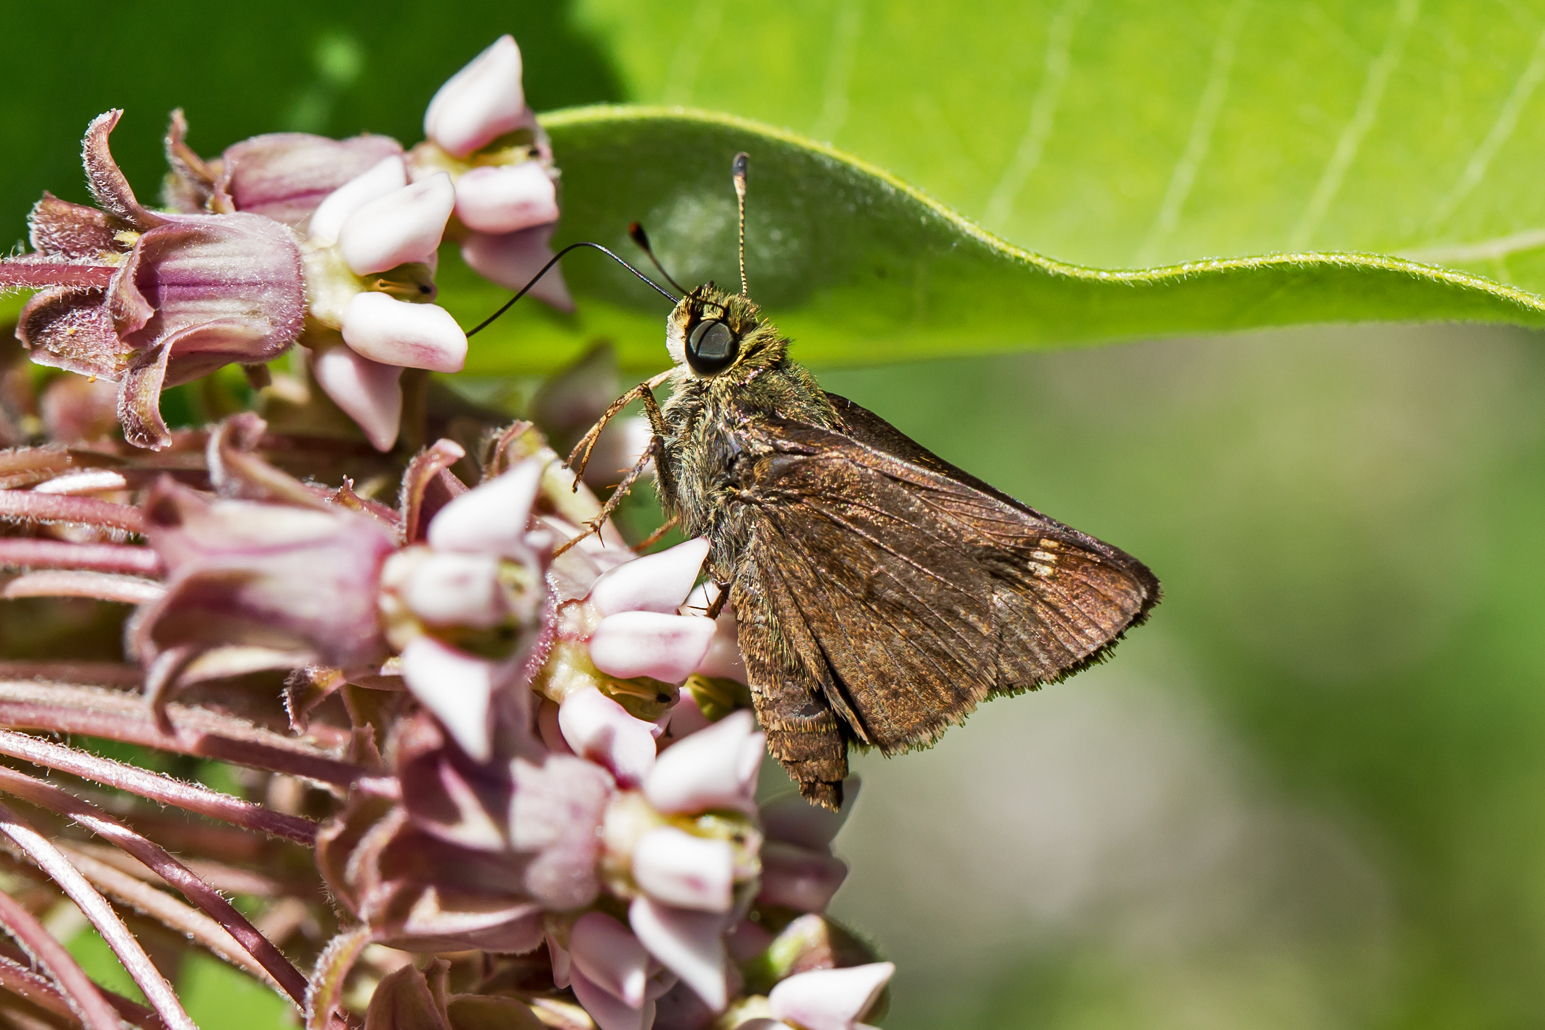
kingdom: Animalia
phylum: Arthropoda
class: Insecta
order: Lepidoptera
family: Hesperiidae
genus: Euphyes
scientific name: Euphyes vestris
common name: Dun skipper
